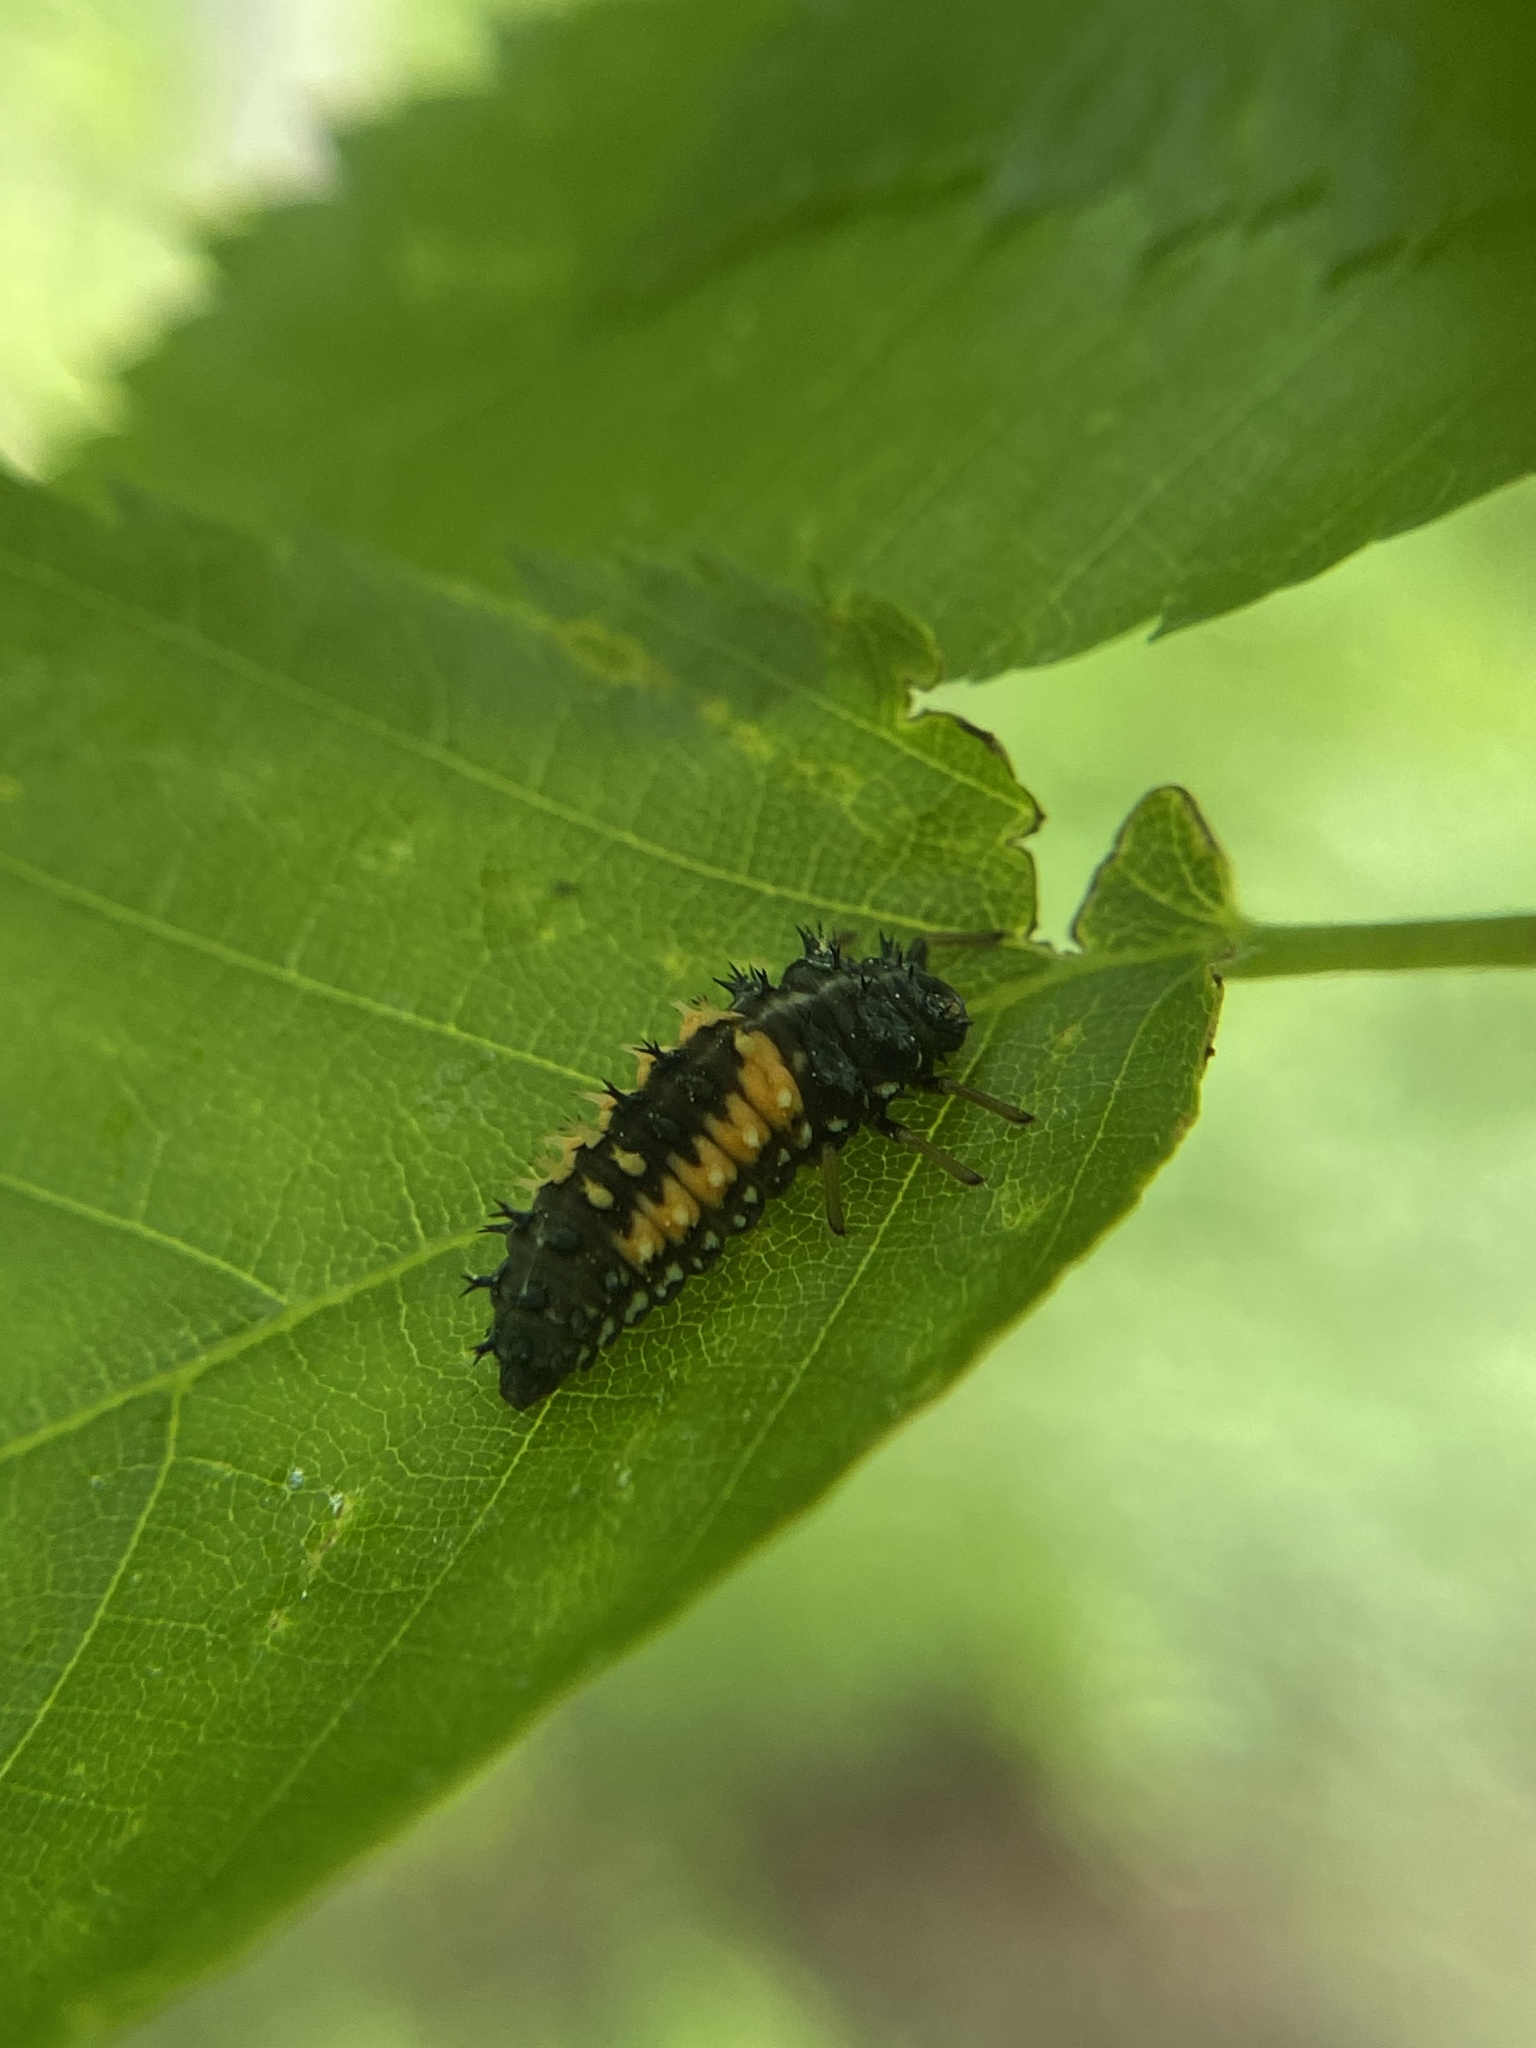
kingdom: Animalia
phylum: Arthropoda
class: Insecta
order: Coleoptera
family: Coccinellidae
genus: Harmonia
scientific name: Harmonia axyridis
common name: Harlequin ladybird
